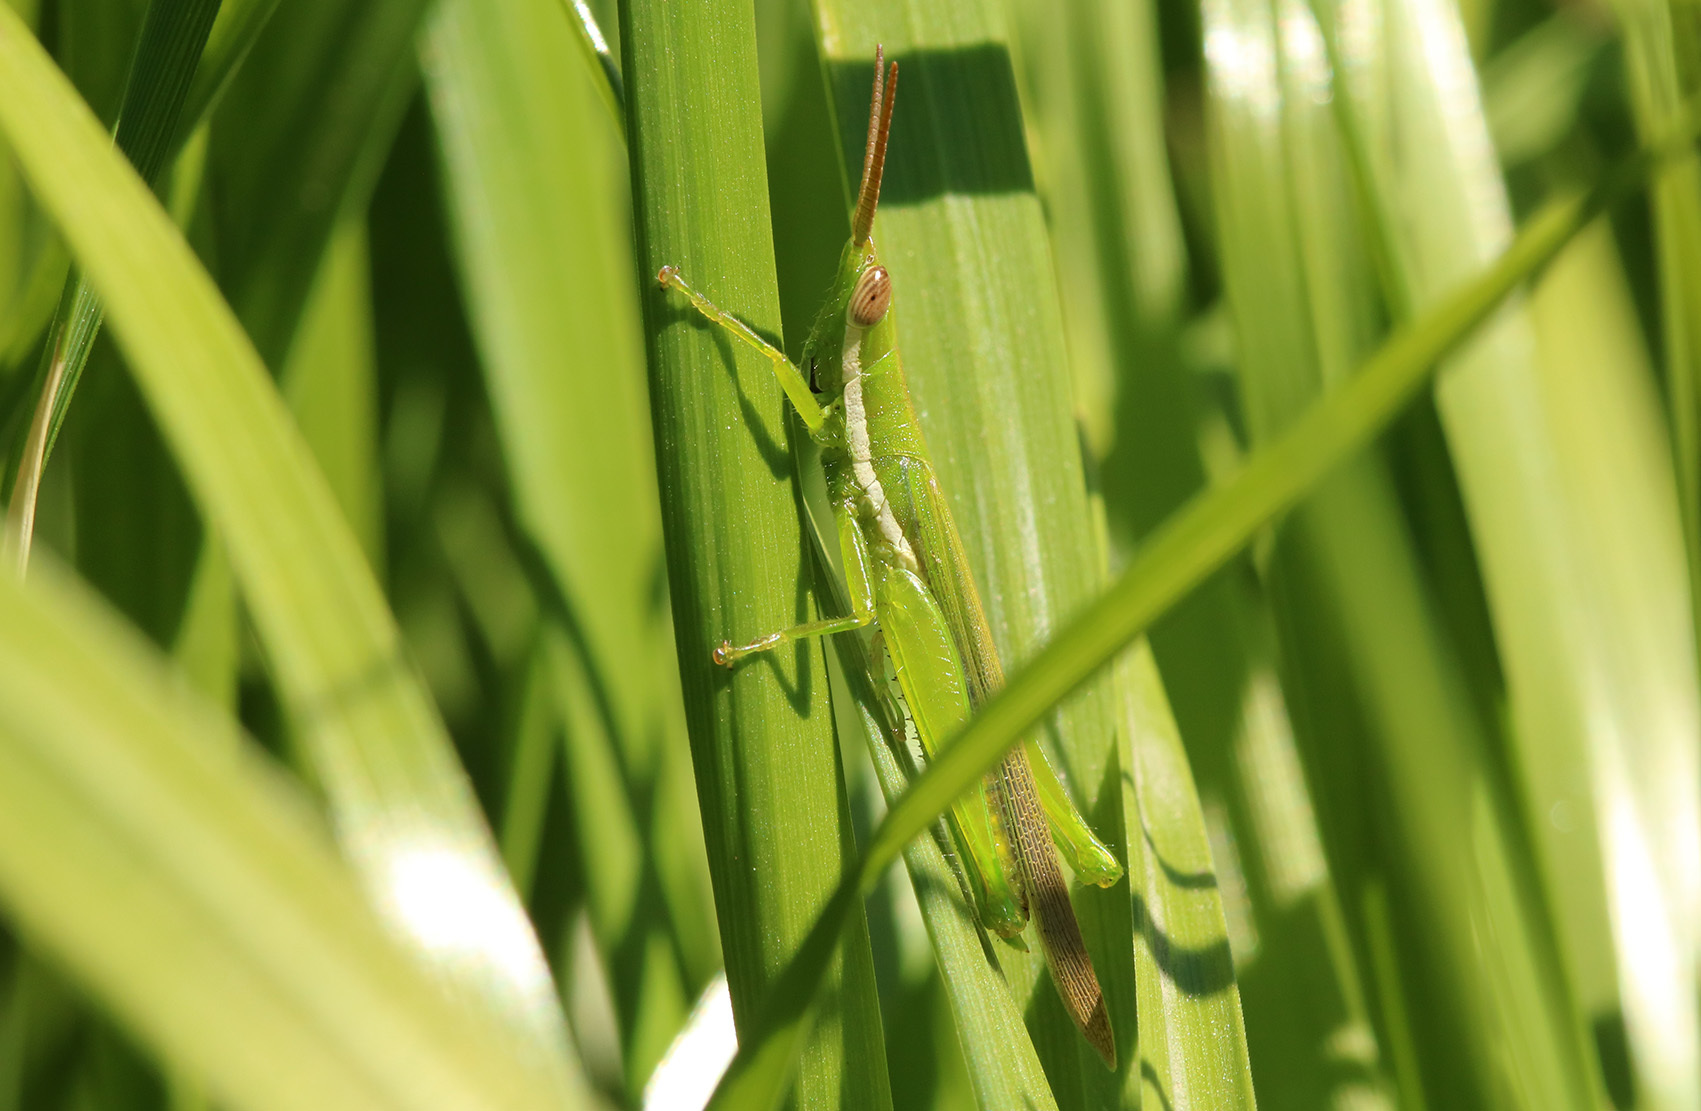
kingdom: Animalia
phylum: Arthropoda
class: Insecta
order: Orthoptera
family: Acrididae
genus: Tucayaca
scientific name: Tucayaca gracilis
